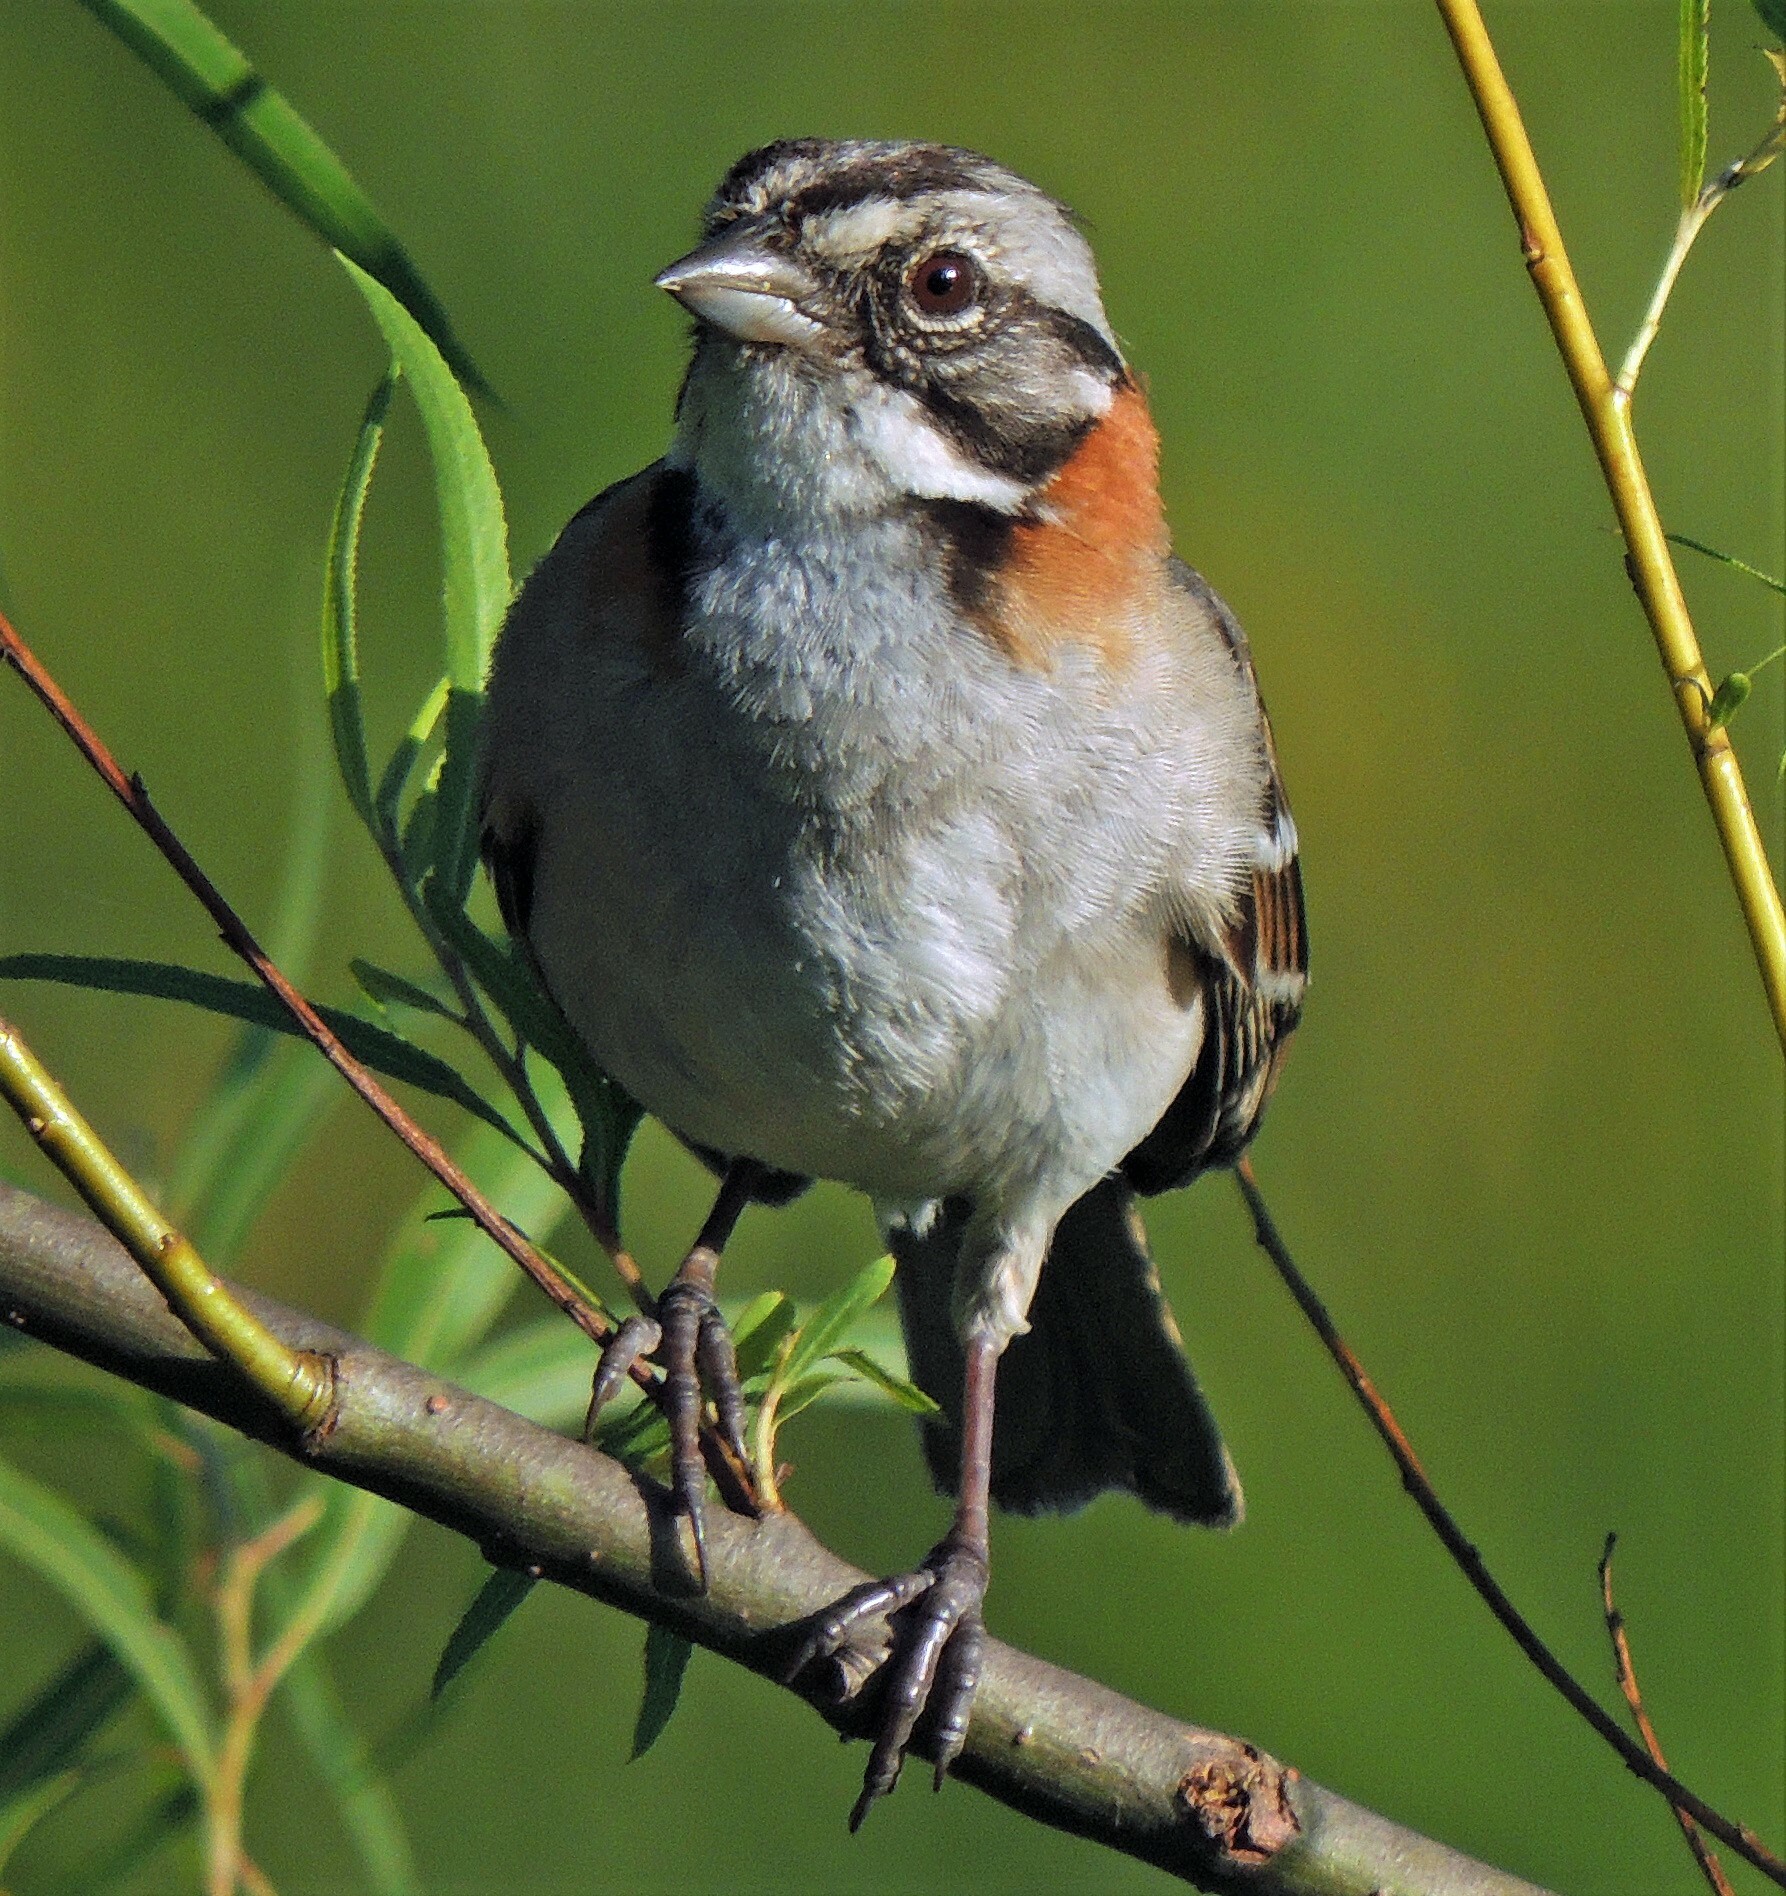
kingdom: Animalia
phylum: Chordata
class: Aves
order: Passeriformes
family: Passerellidae
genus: Zonotrichia
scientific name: Zonotrichia capensis
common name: Rufous-collared sparrow
